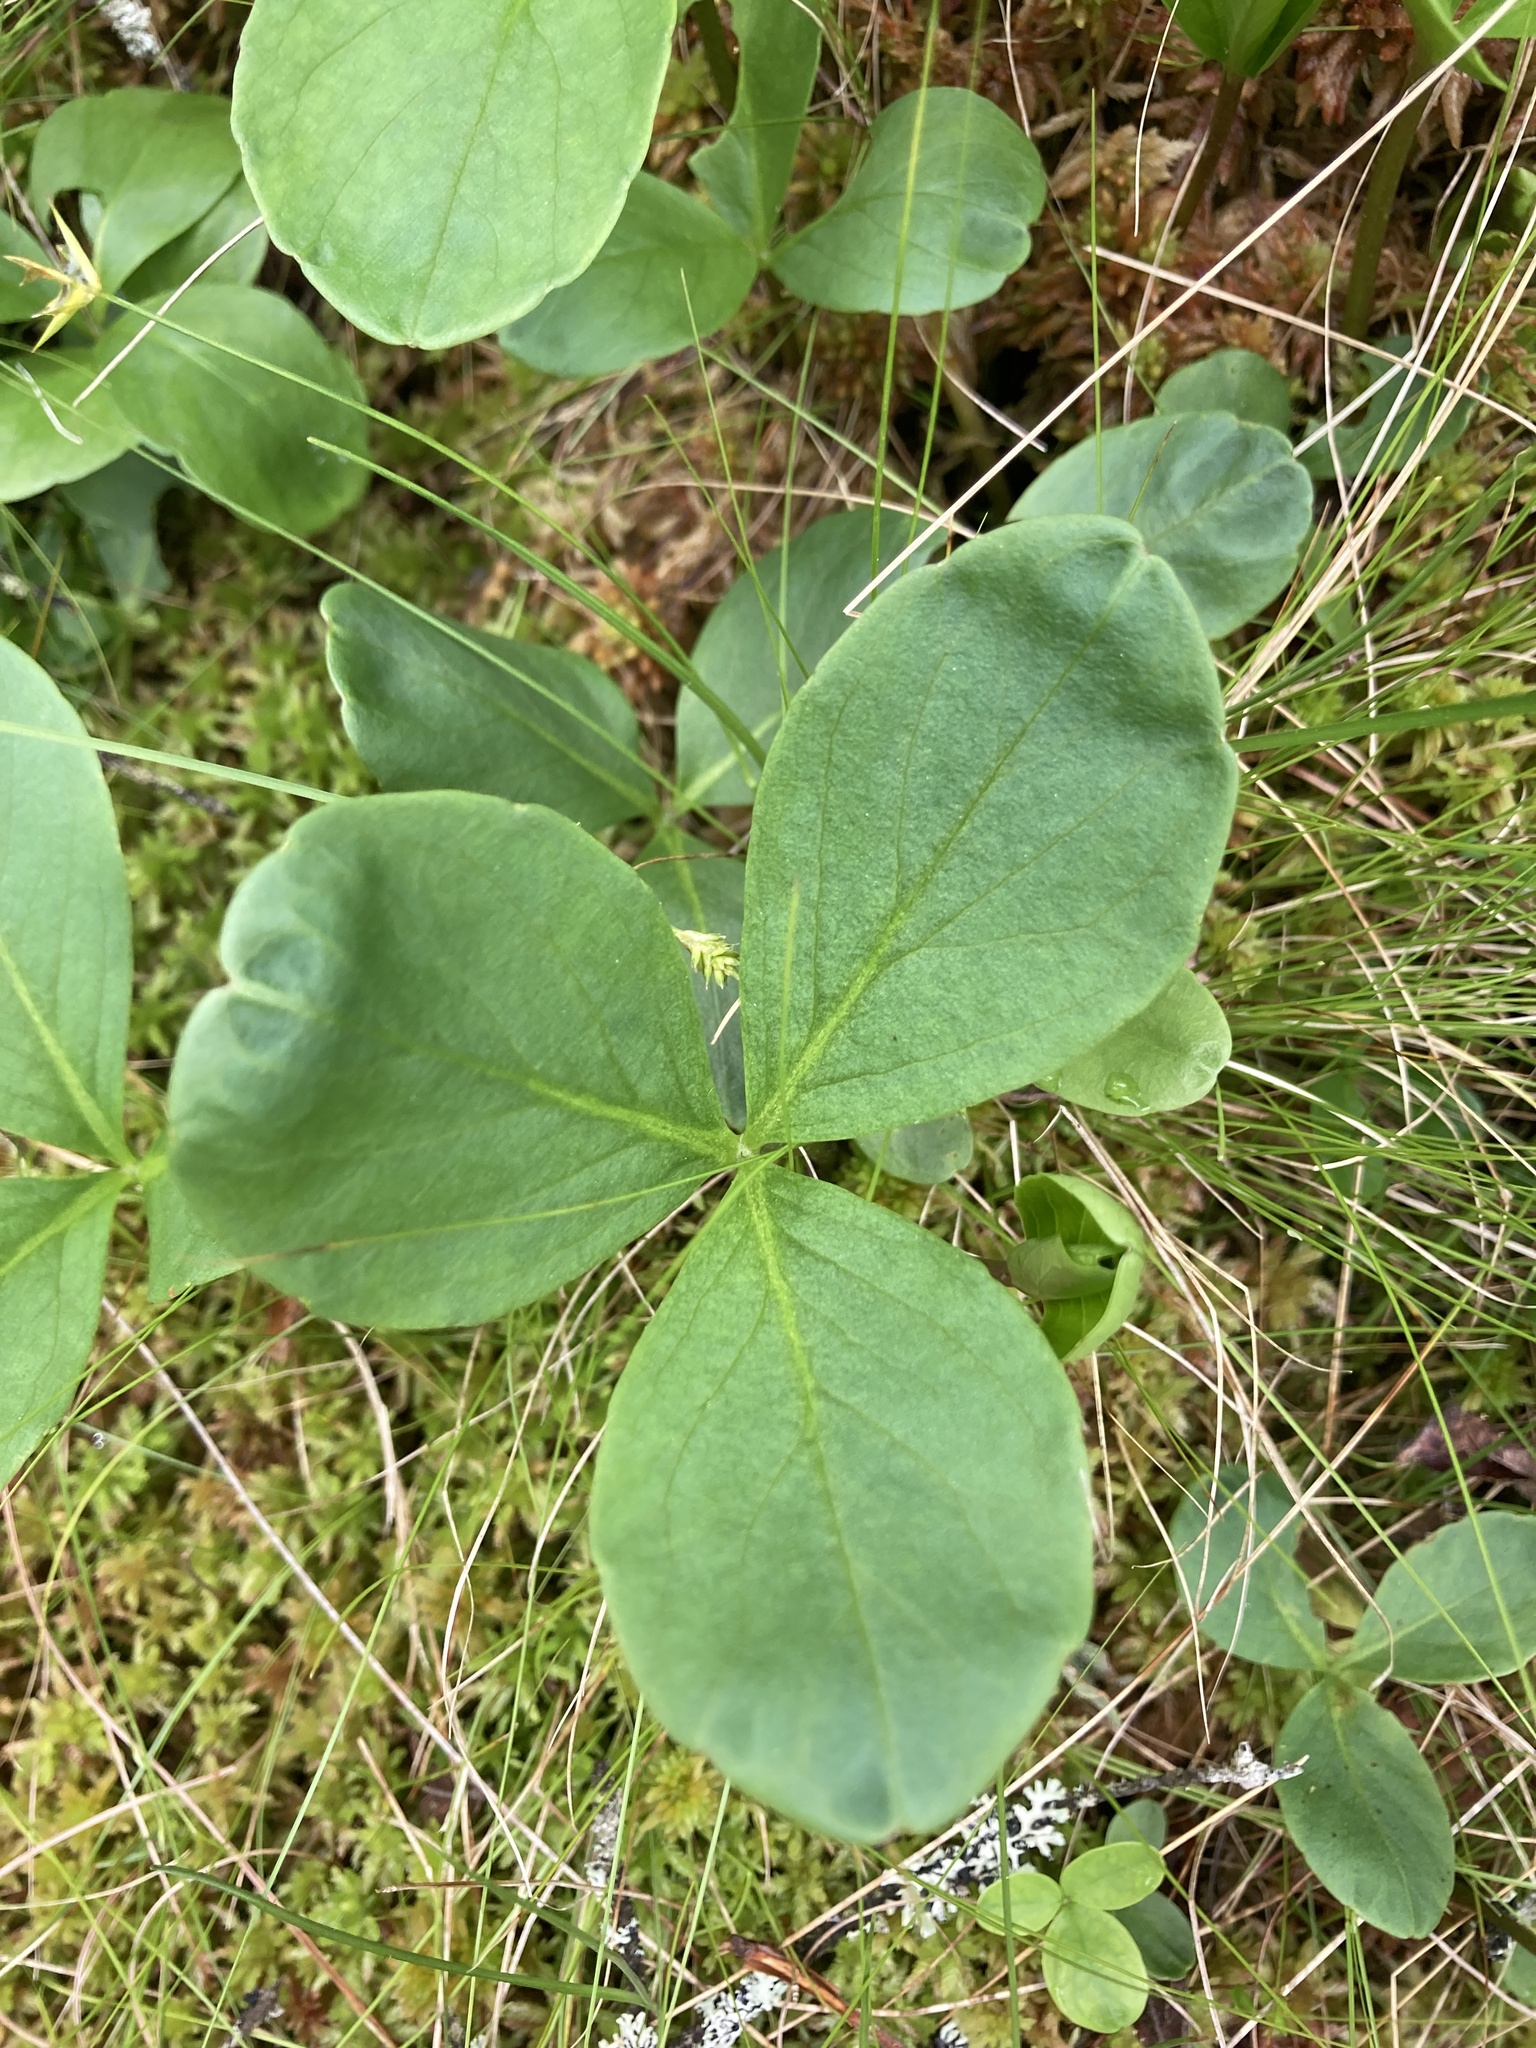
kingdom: Plantae
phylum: Tracheophyta
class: Magnoliopsida
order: Asterales
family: Menyanthaceae
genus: Menyanthes
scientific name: Menyanthes trifoliata
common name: Bogbean
